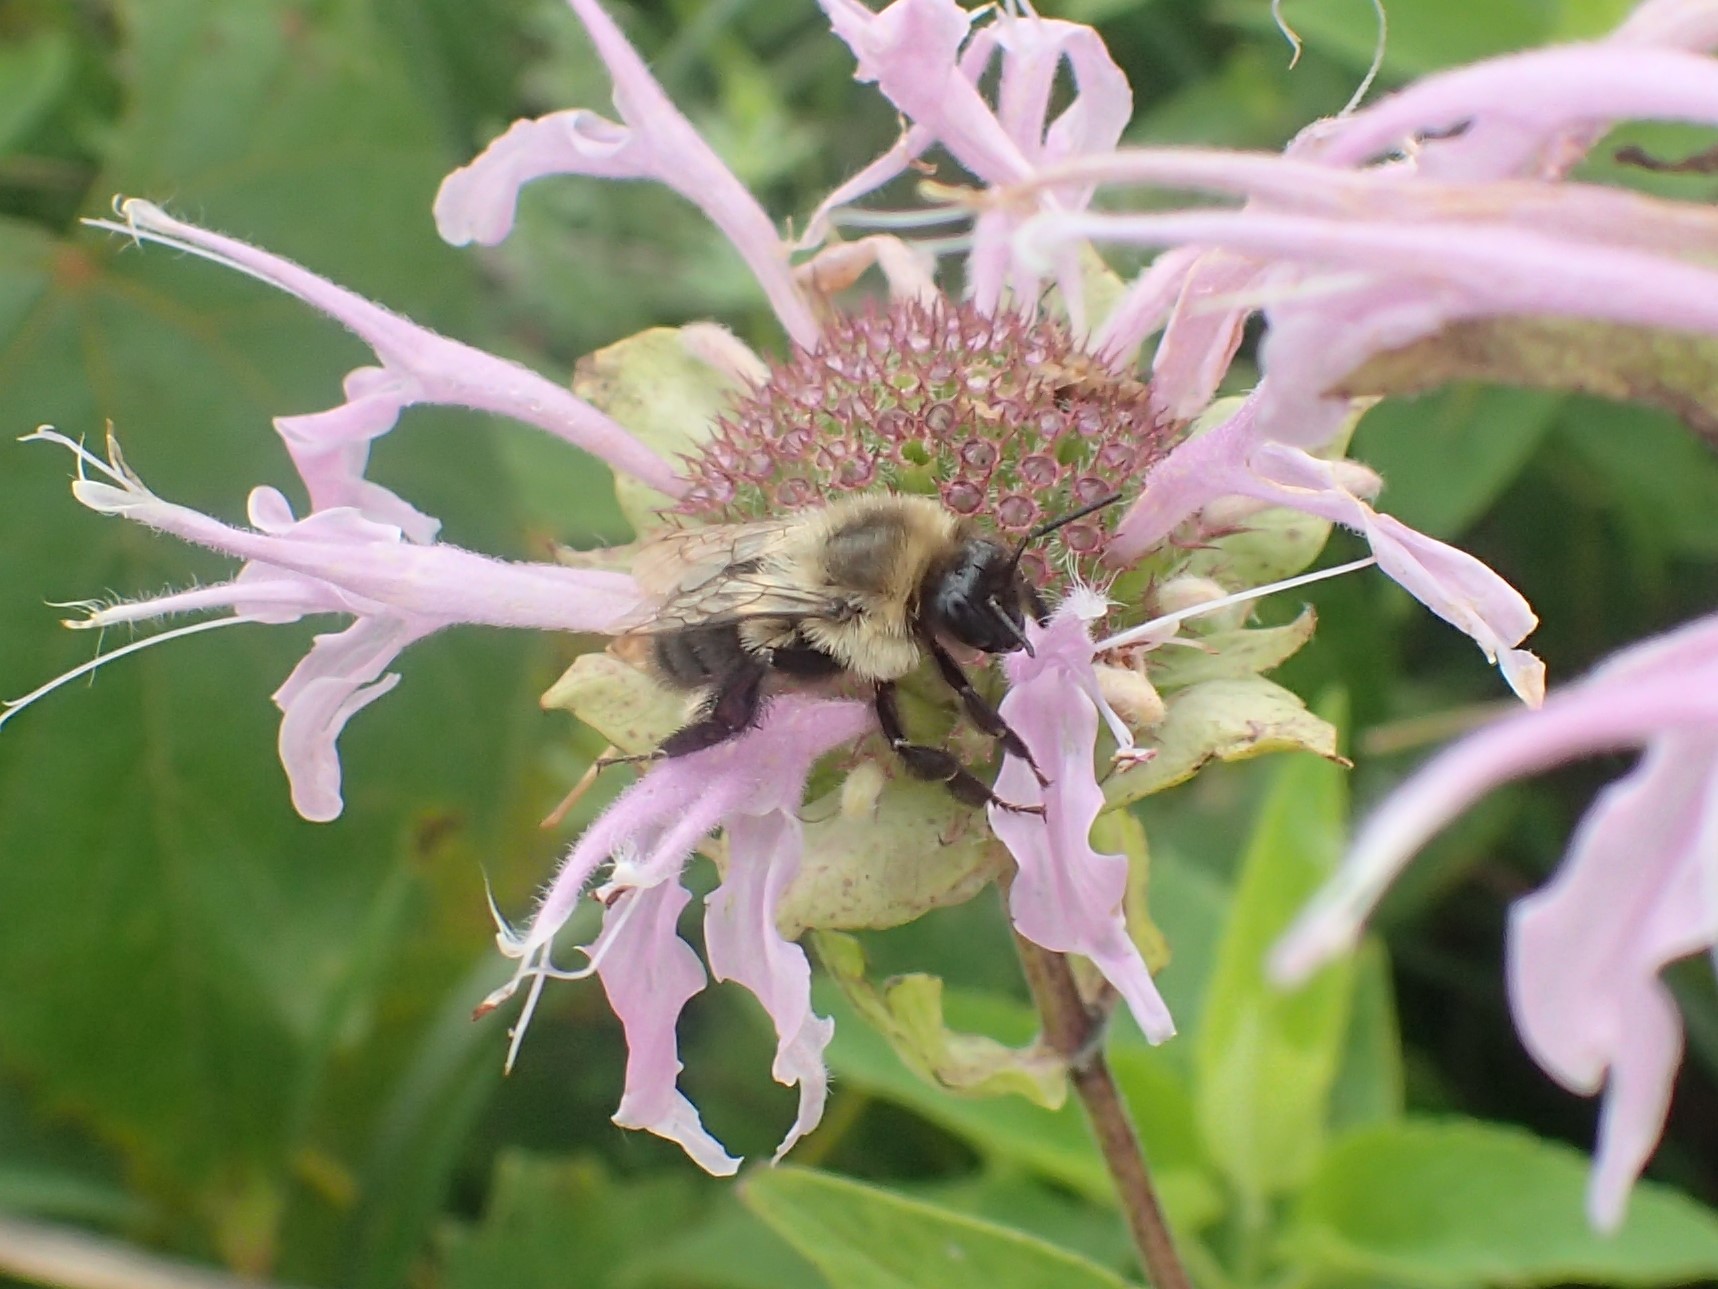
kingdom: Animalia
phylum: Arthropoda
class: Insecta
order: Hymenoptera
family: Apidae
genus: Bombus
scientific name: Bombus impatiens
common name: Common eastern bumble bee
